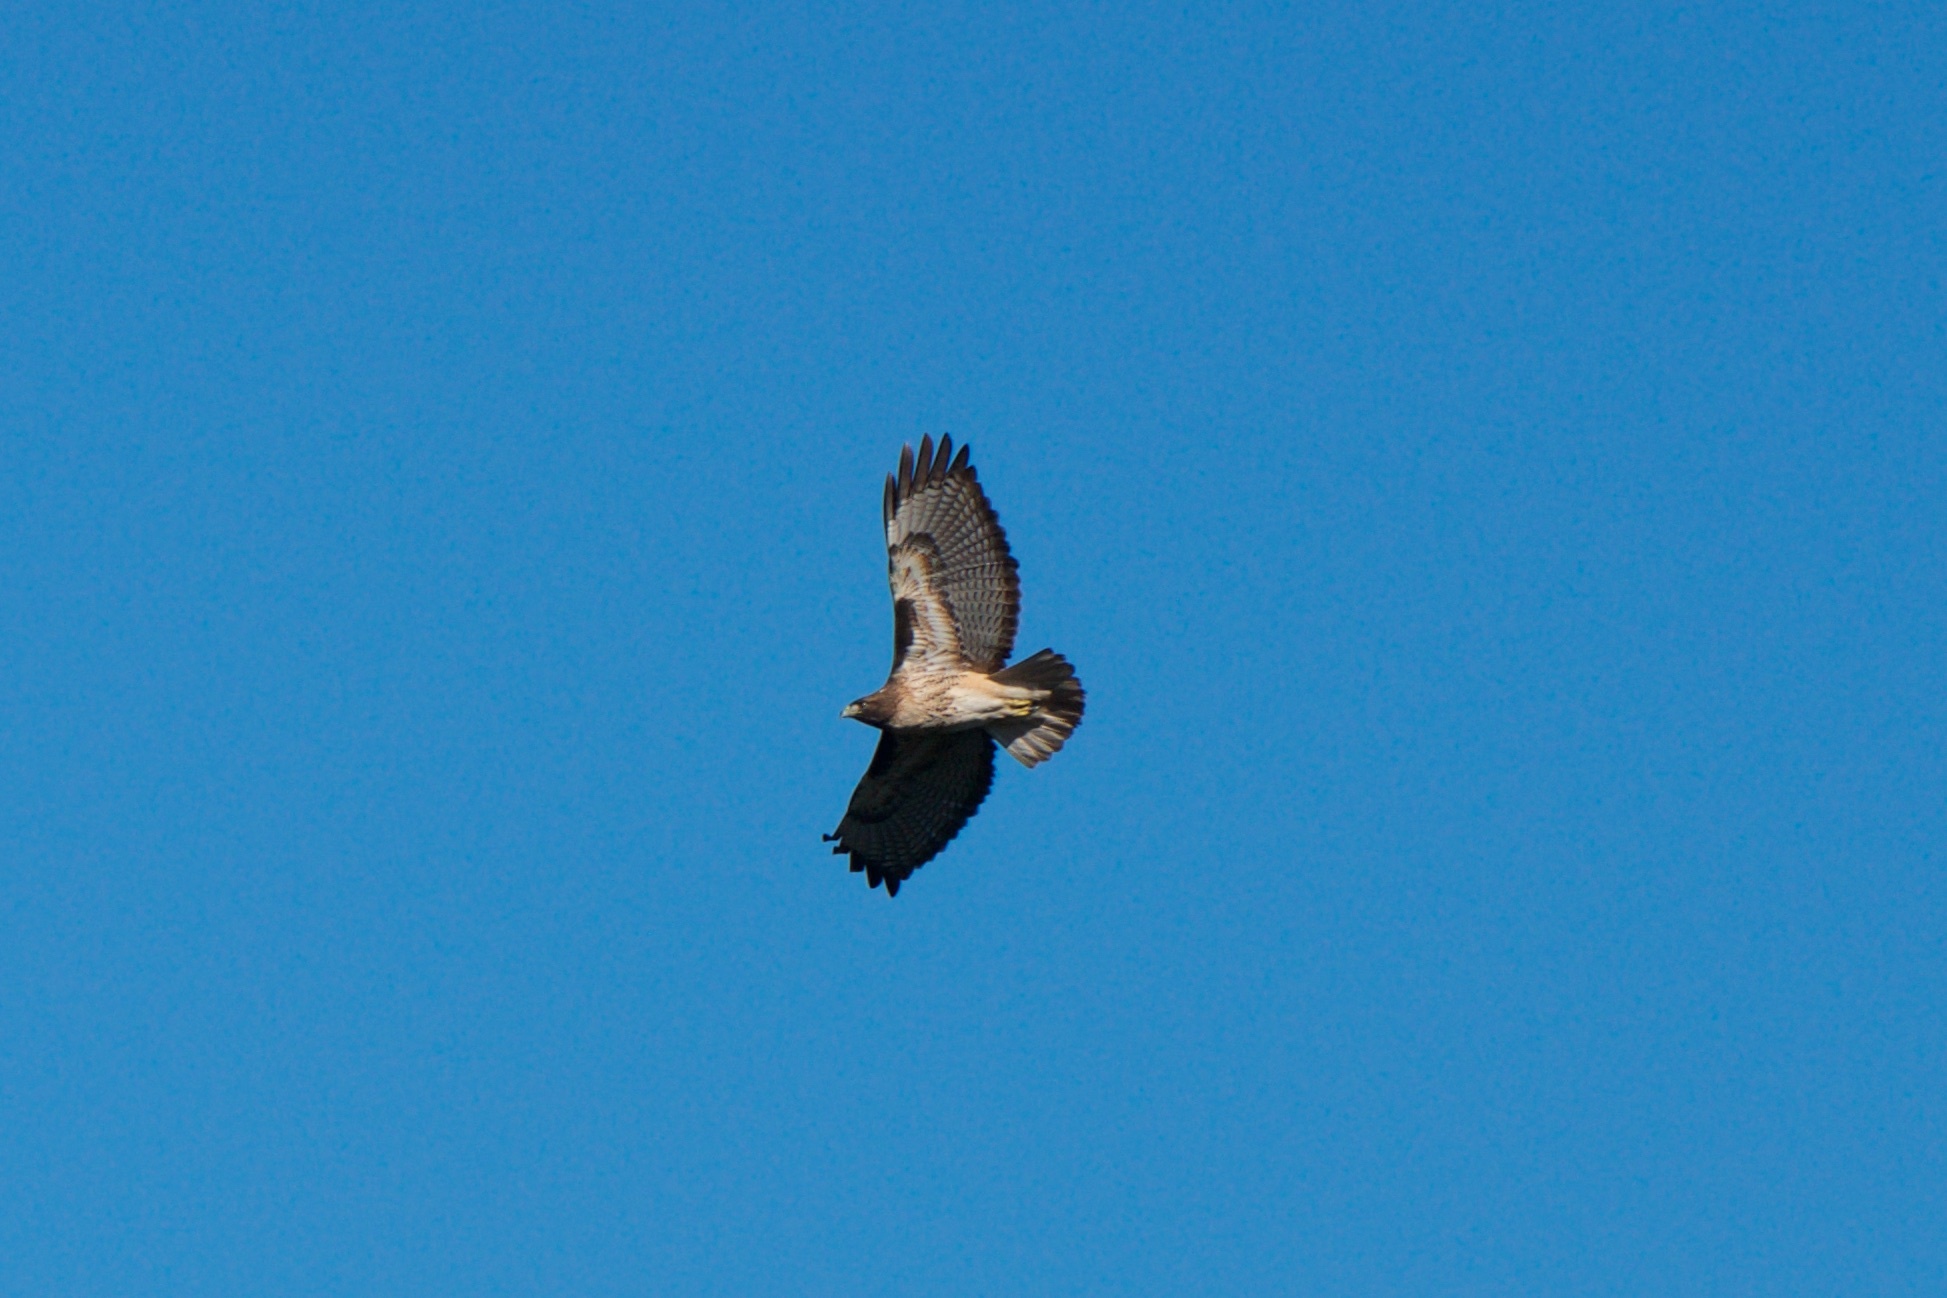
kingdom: Animalia
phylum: Chordata
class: Aves
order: Accipitriformes
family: Accipitridae
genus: Buteo
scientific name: Buteo jamaicensis
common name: Red-tailed hawk
